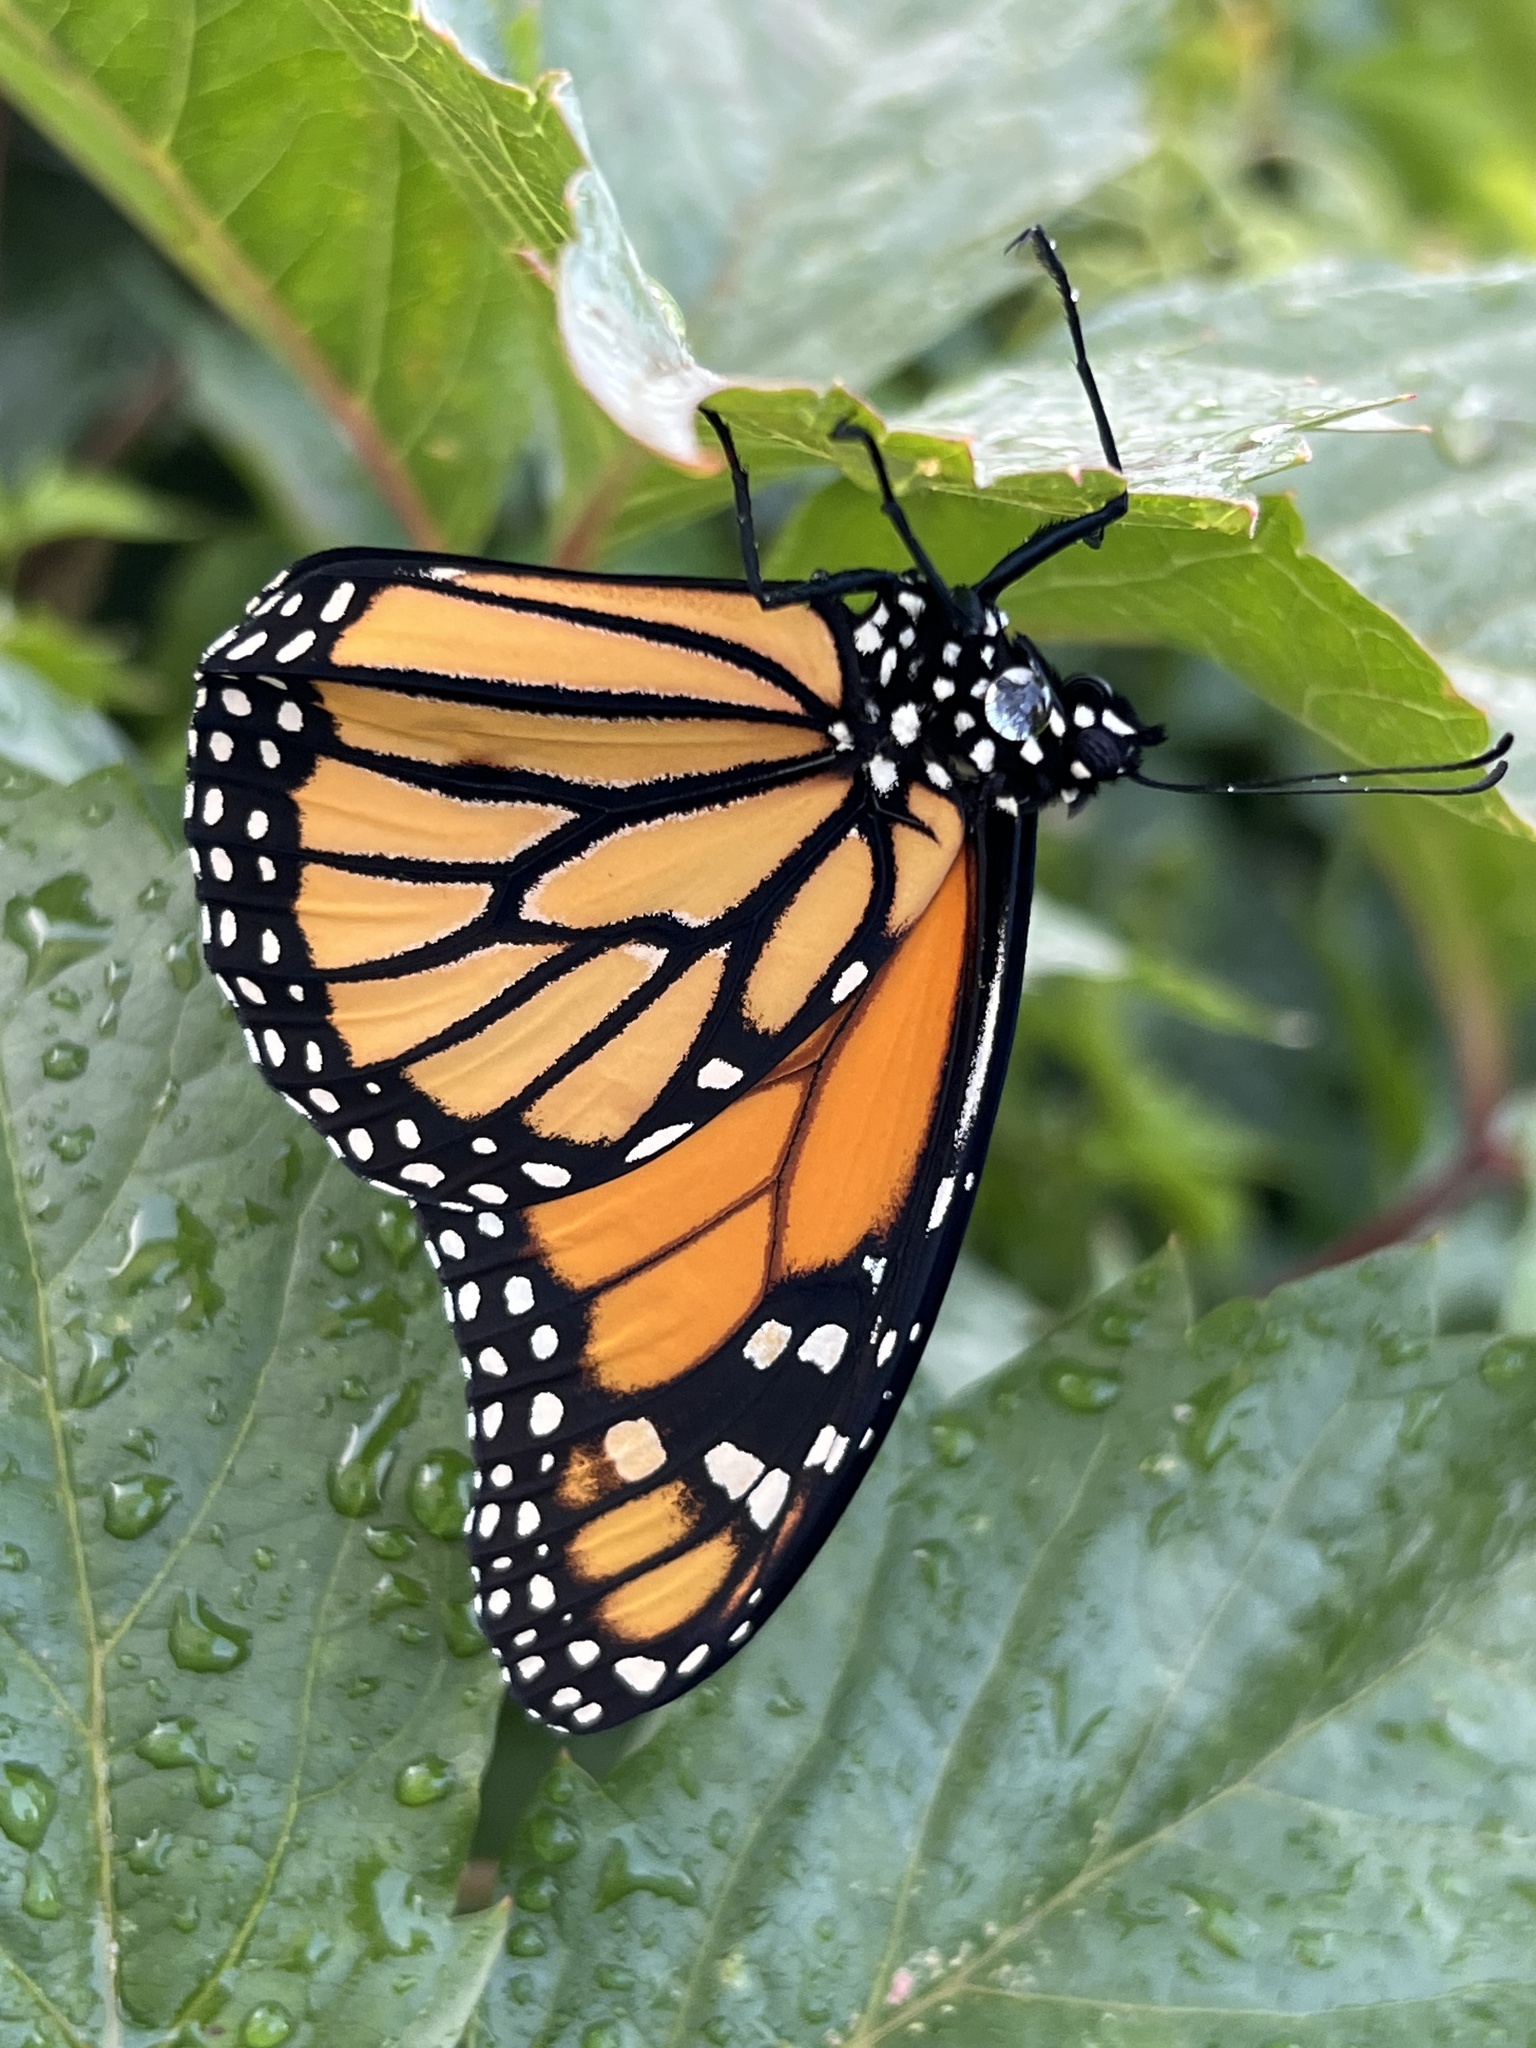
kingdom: Animalia
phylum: Arthropoda
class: Insecta
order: Lepidoptera
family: Nymphalidae
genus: Danaus
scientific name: Danaus plexippus
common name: Monarch
